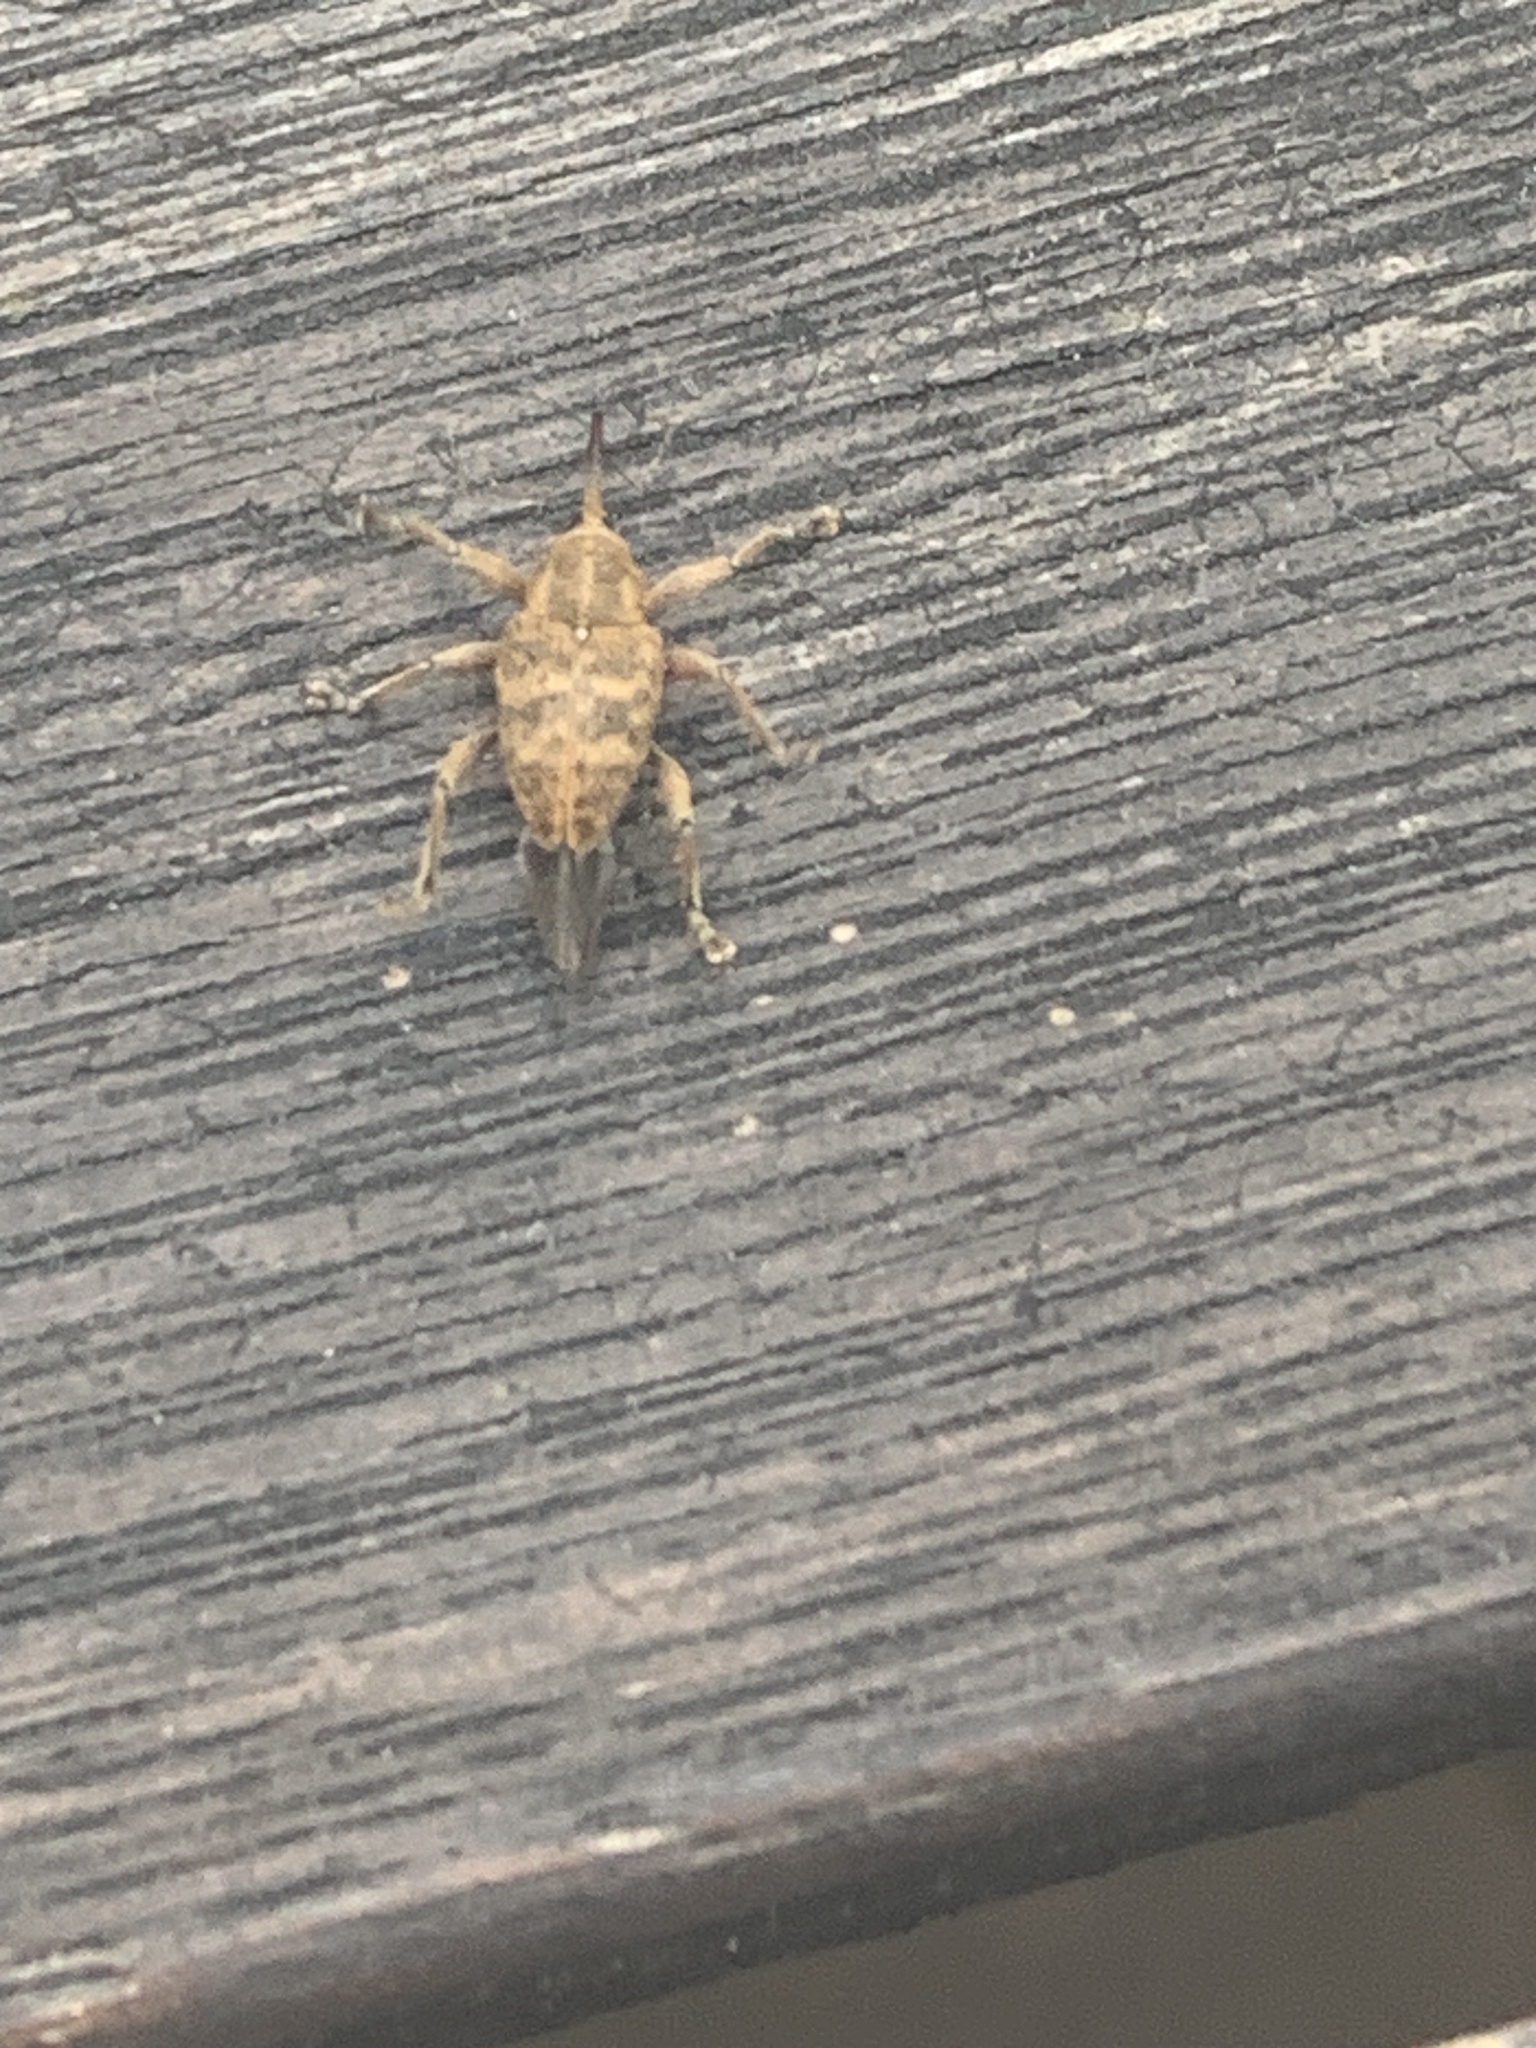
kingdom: Animalia
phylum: Arthropoda
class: Insecta
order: Coleoptera
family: Curculionidae
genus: Curculio
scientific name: Curculio venosus
